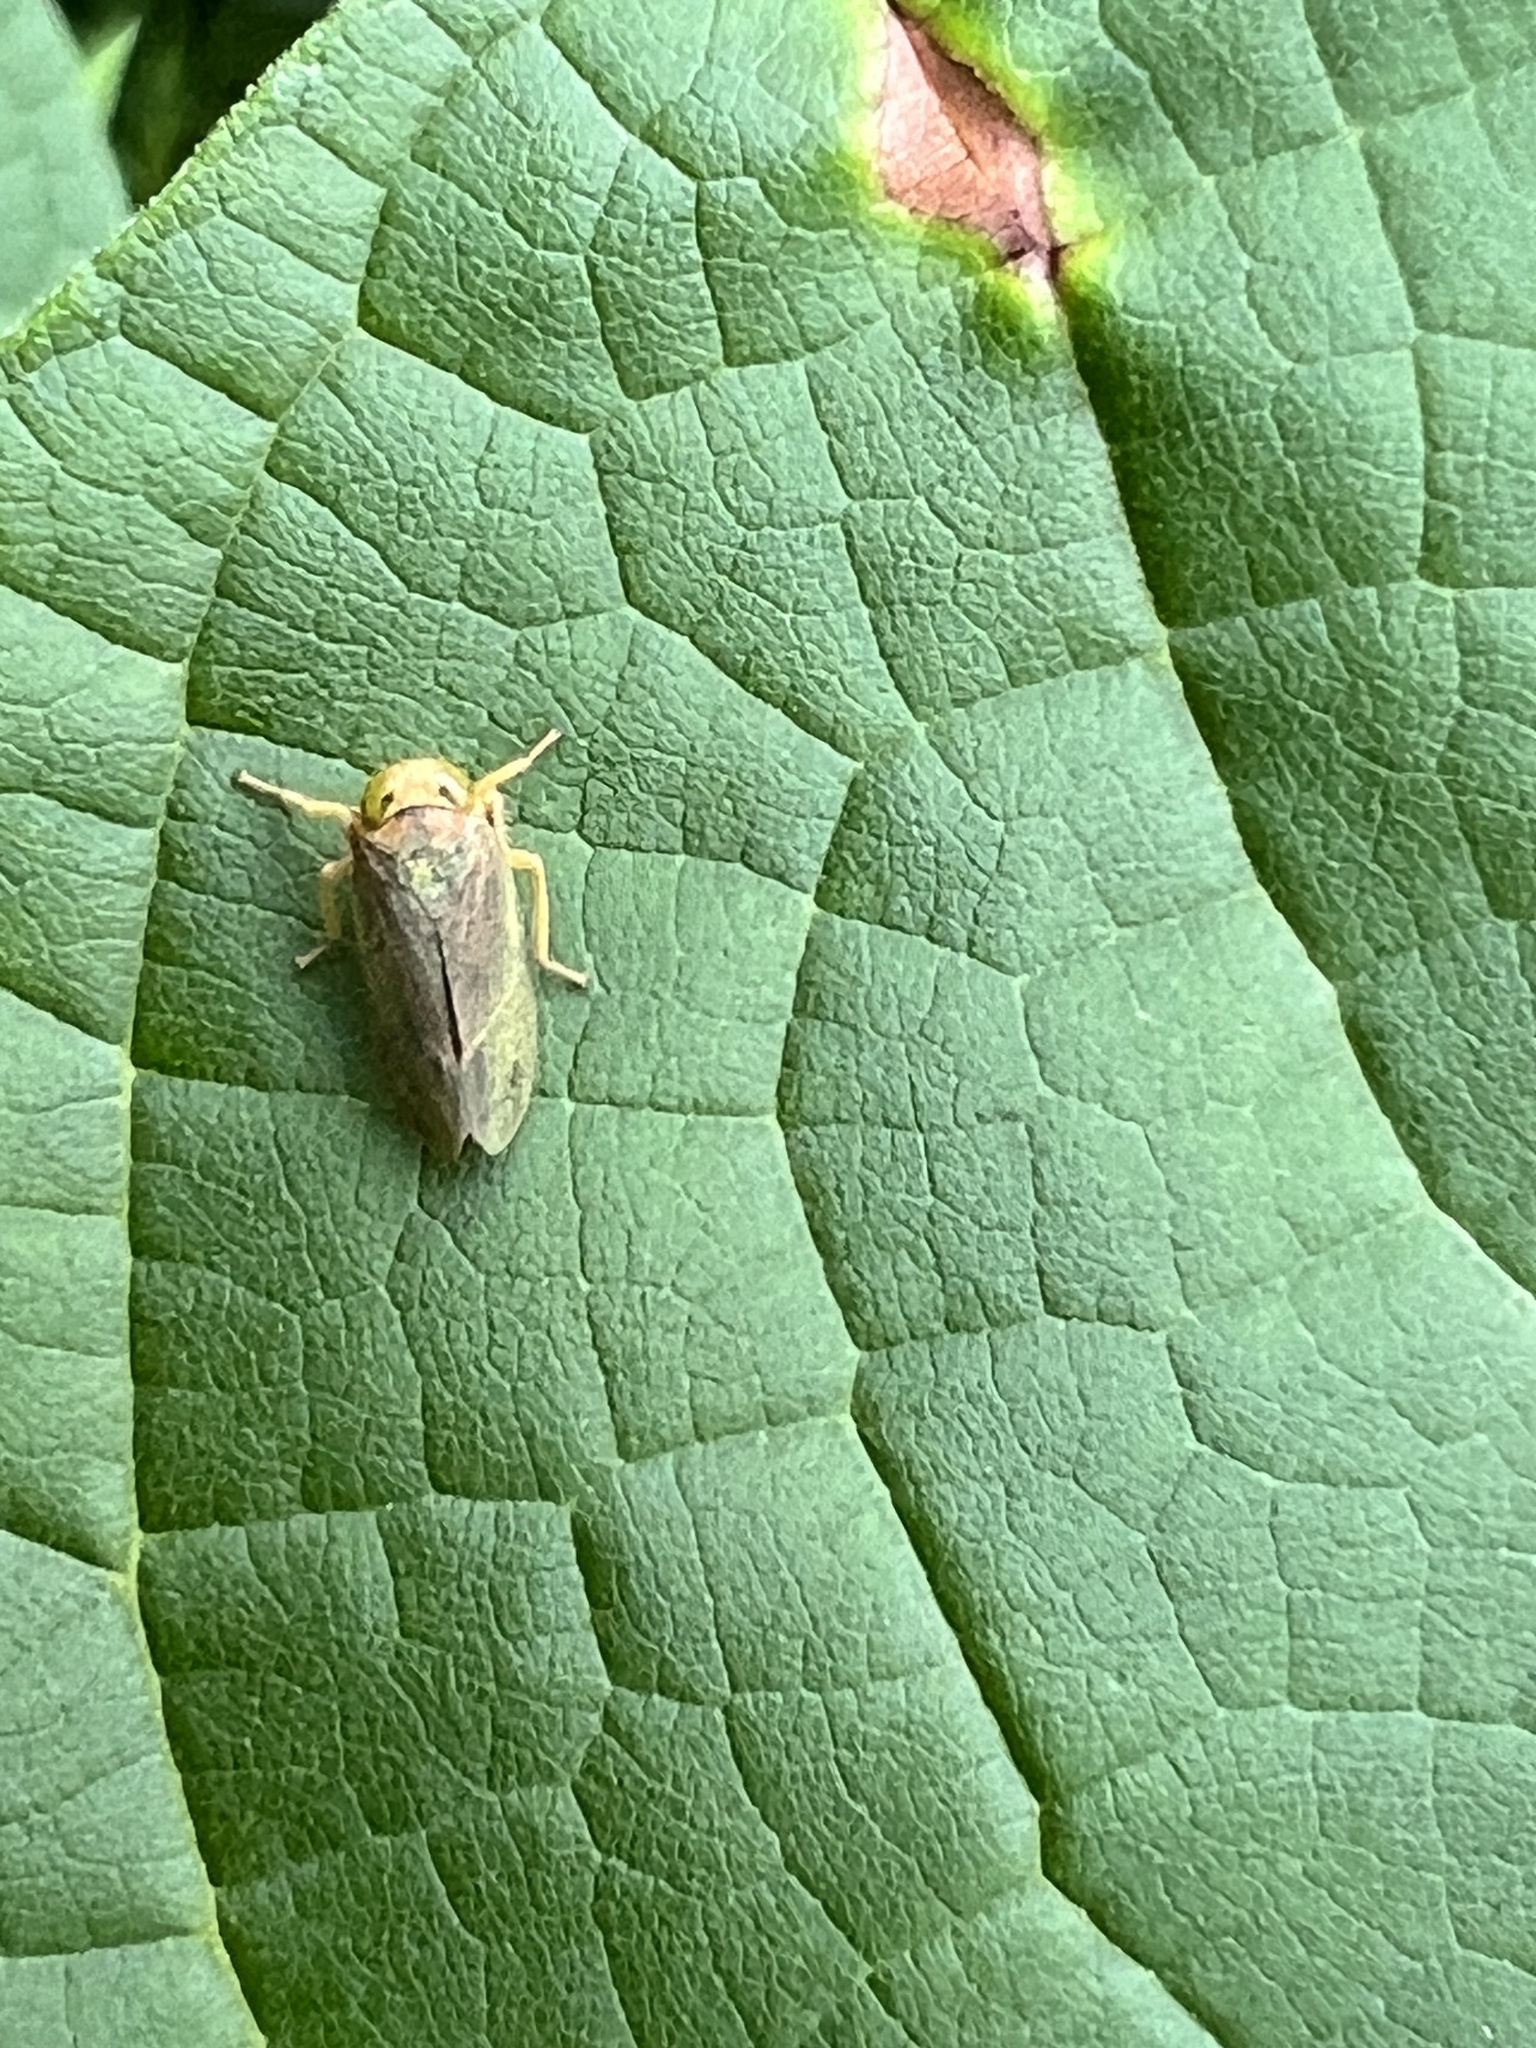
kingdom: Animalia
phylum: Arthropoda
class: Insecta
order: Hemiptera
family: Cicadellidae
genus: Jikradia
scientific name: Jikradia olitoria
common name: Coppery leafhopper
